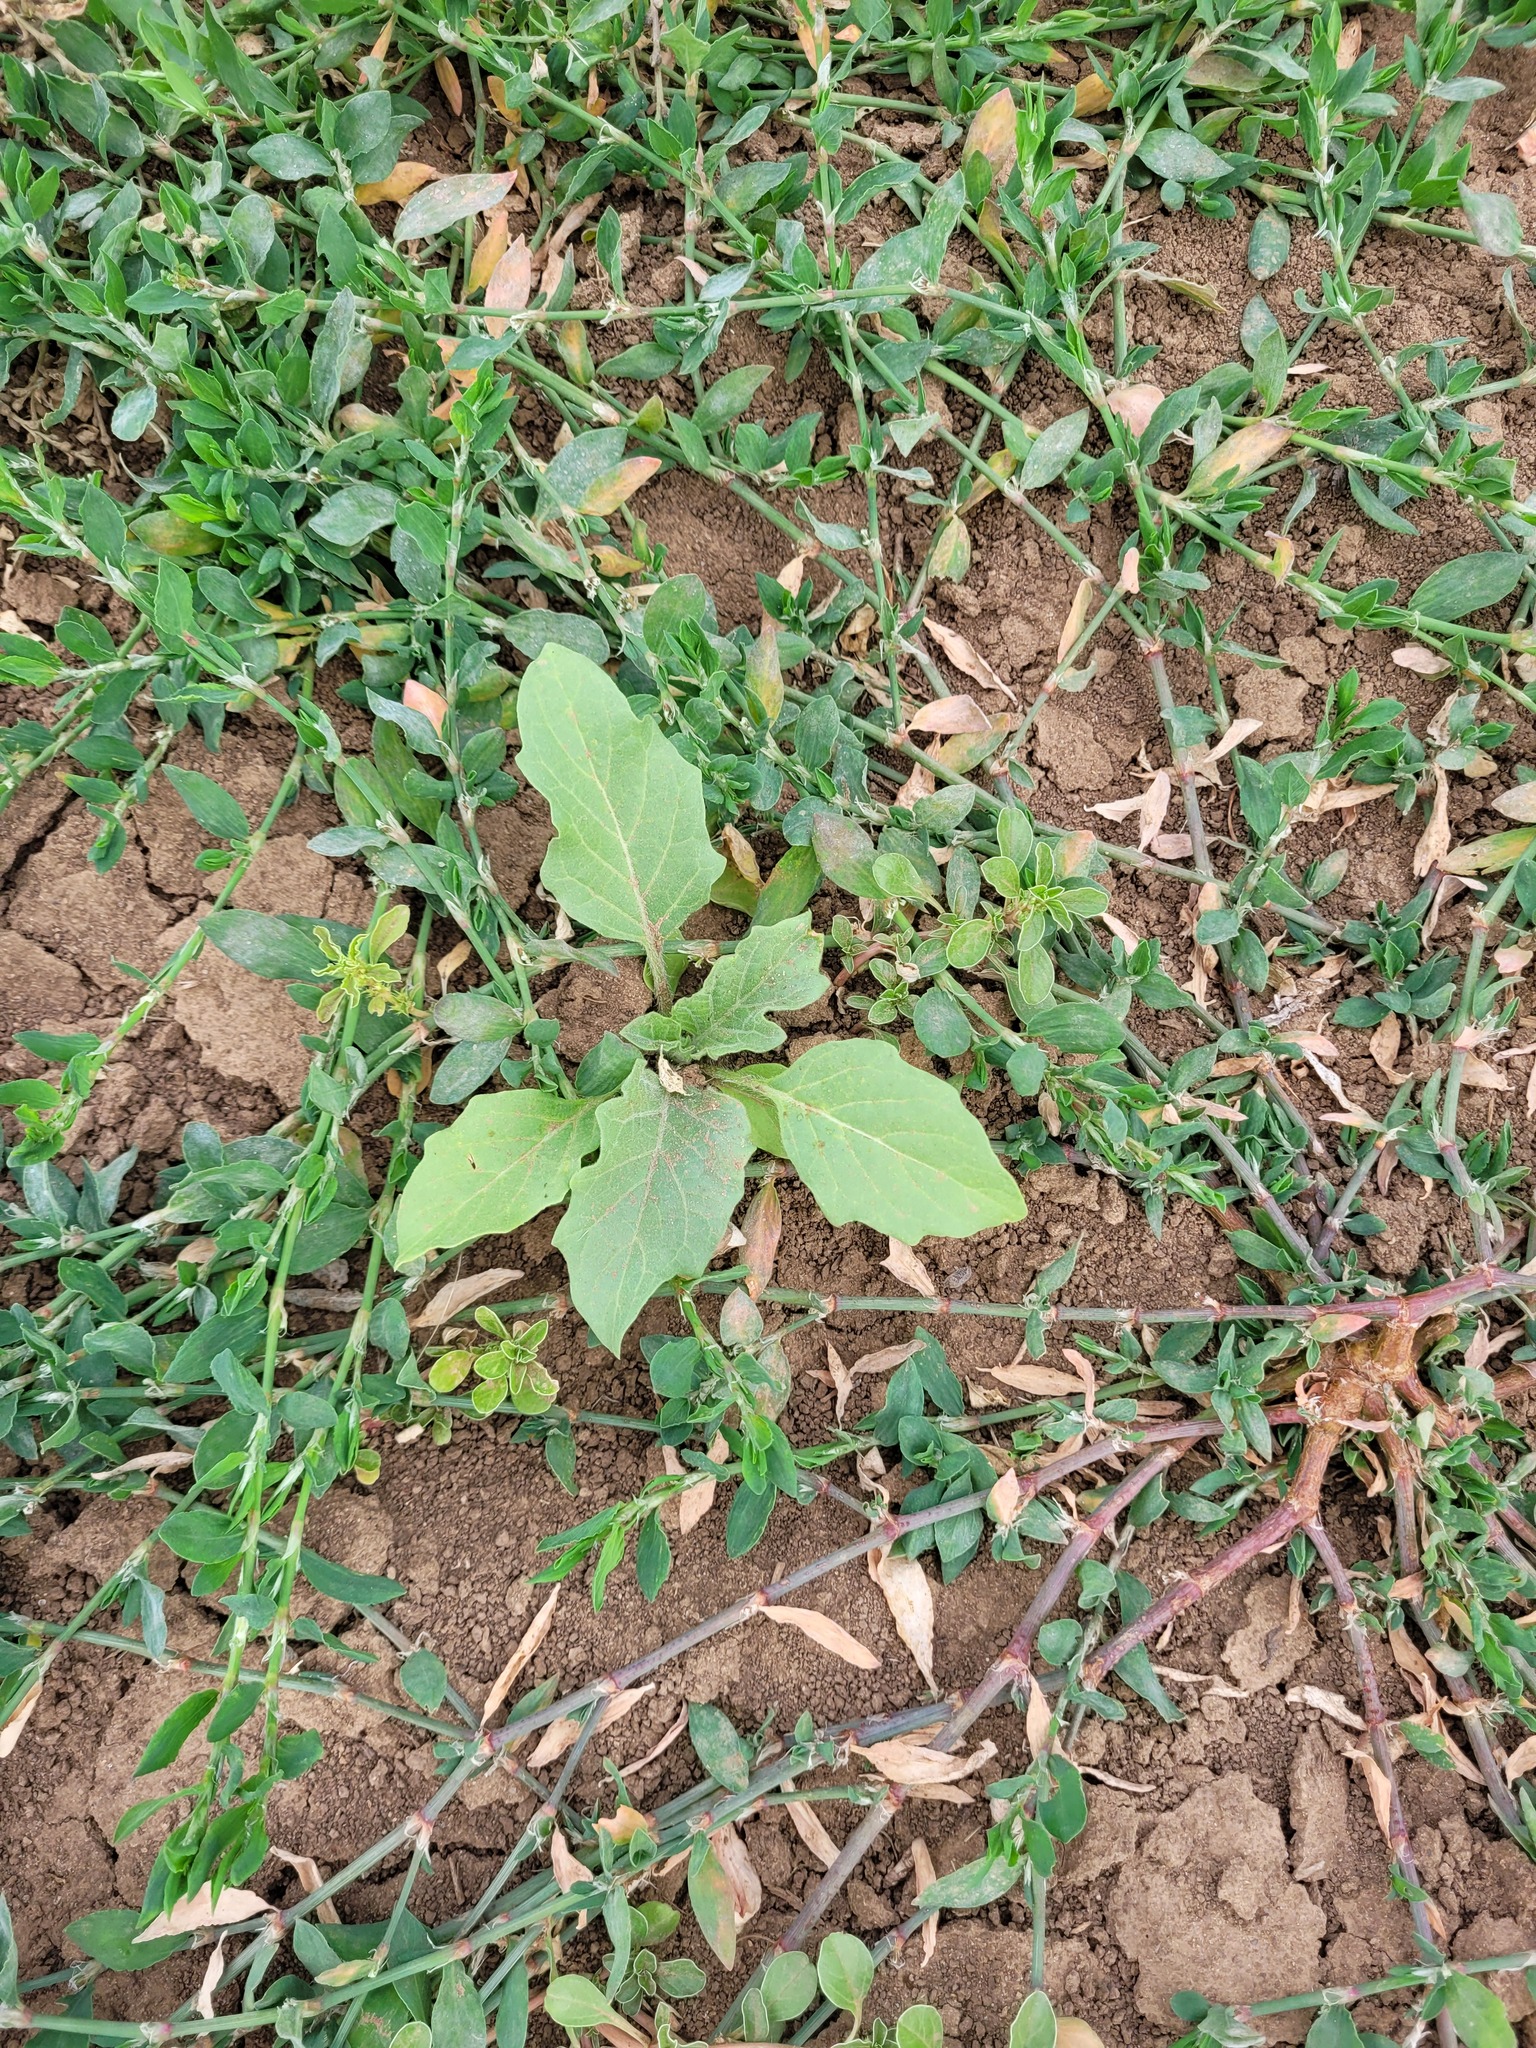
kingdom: Plantae
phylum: Tracheophyta
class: Magnoliopsida
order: Solanales
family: Solanaceae
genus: Hyoscyamus
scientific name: Hyoscyamus niger
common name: Henbane
